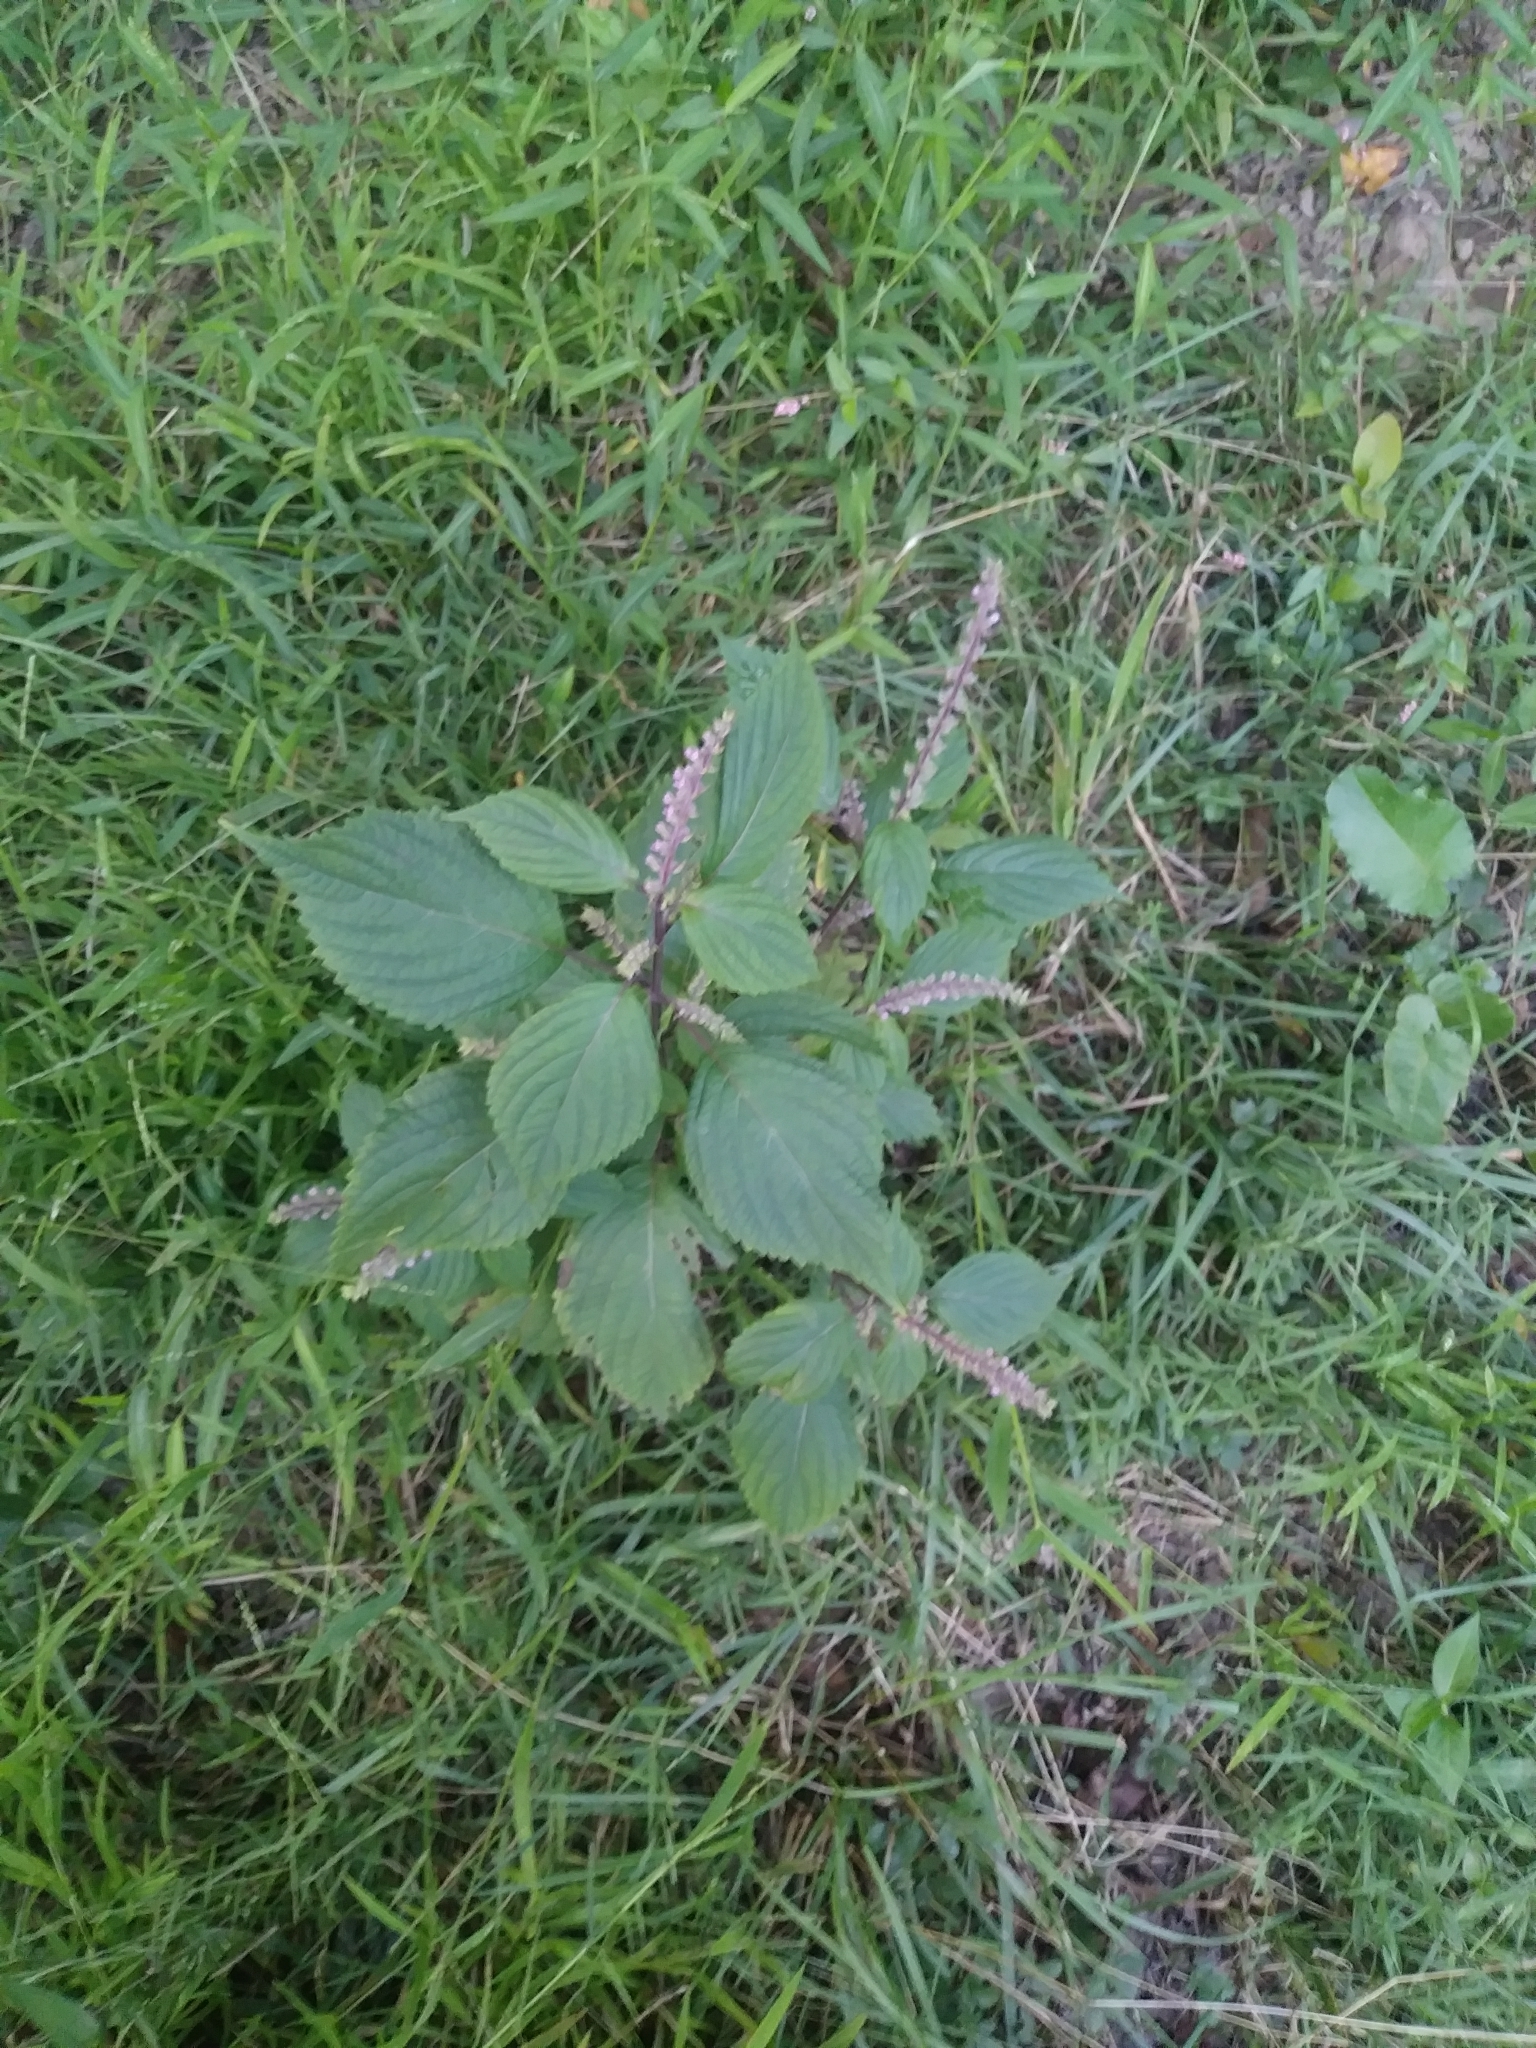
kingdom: Plantae
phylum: Tracheophyta
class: Magnoliopsida
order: Lamiales
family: Lamiaceae
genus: Perilla
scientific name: Perilla frutescens
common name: Perilla
